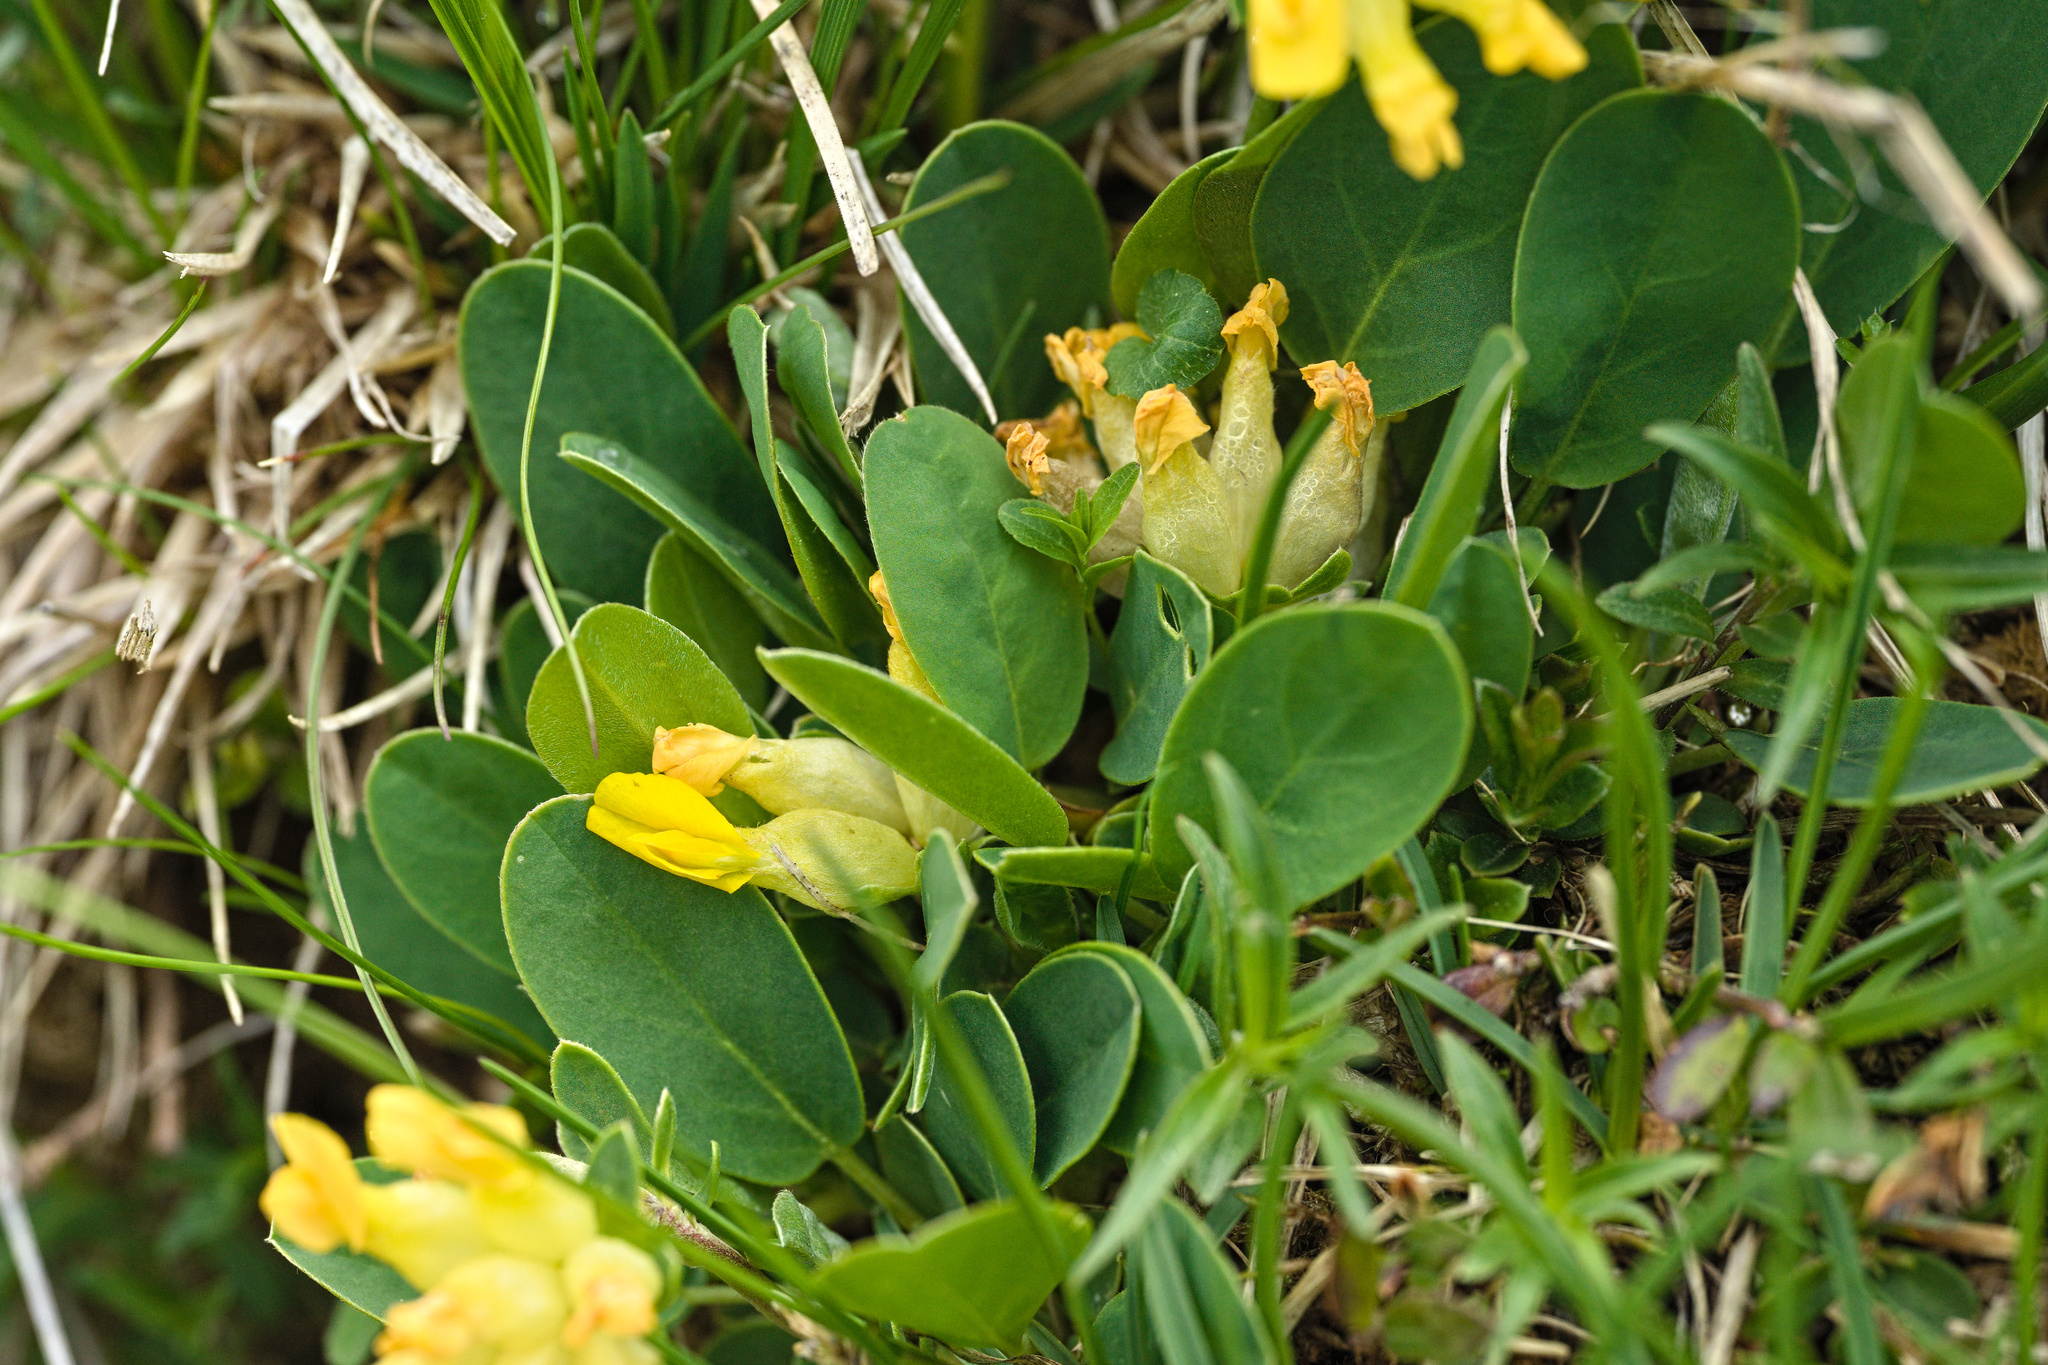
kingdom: Plantae
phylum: Tracheophyta
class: Magnoliopsida
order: Fabales
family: Fabaceae
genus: Anthyllis
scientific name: Anthyllis vulneraria
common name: Kidney vetch
